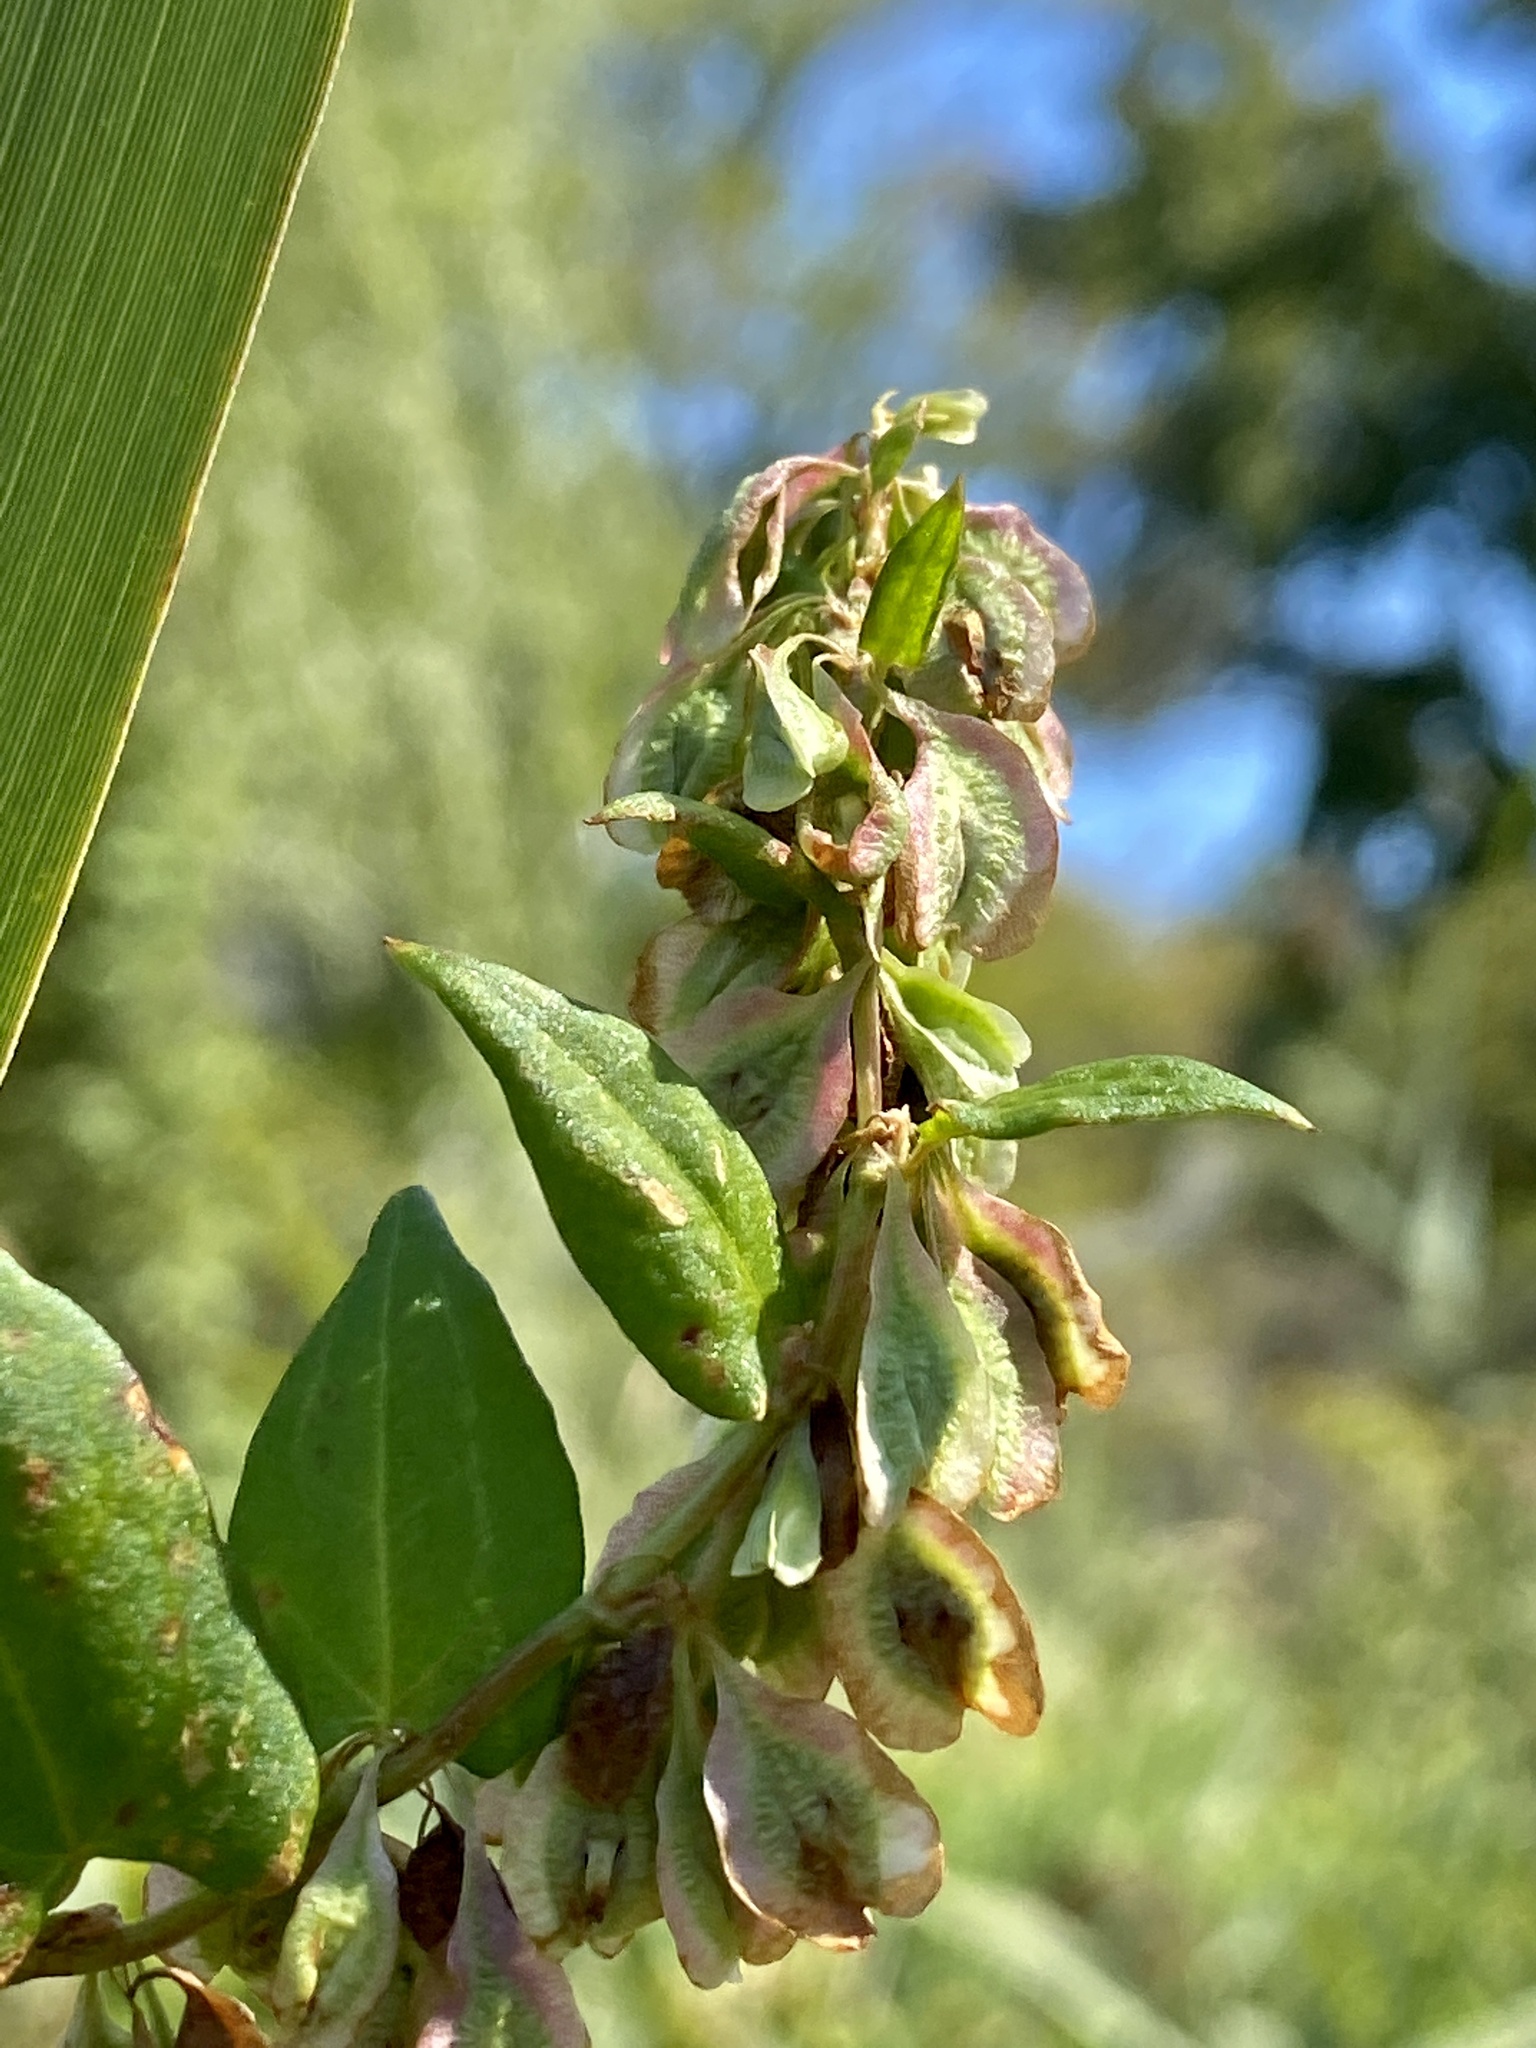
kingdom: Plantae
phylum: Tracheophyta
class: Magnoliopsida
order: Caryophyllales
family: Polygonaceae
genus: Fallopia
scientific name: Fallopia scandens
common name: Climbing false buckwheat
